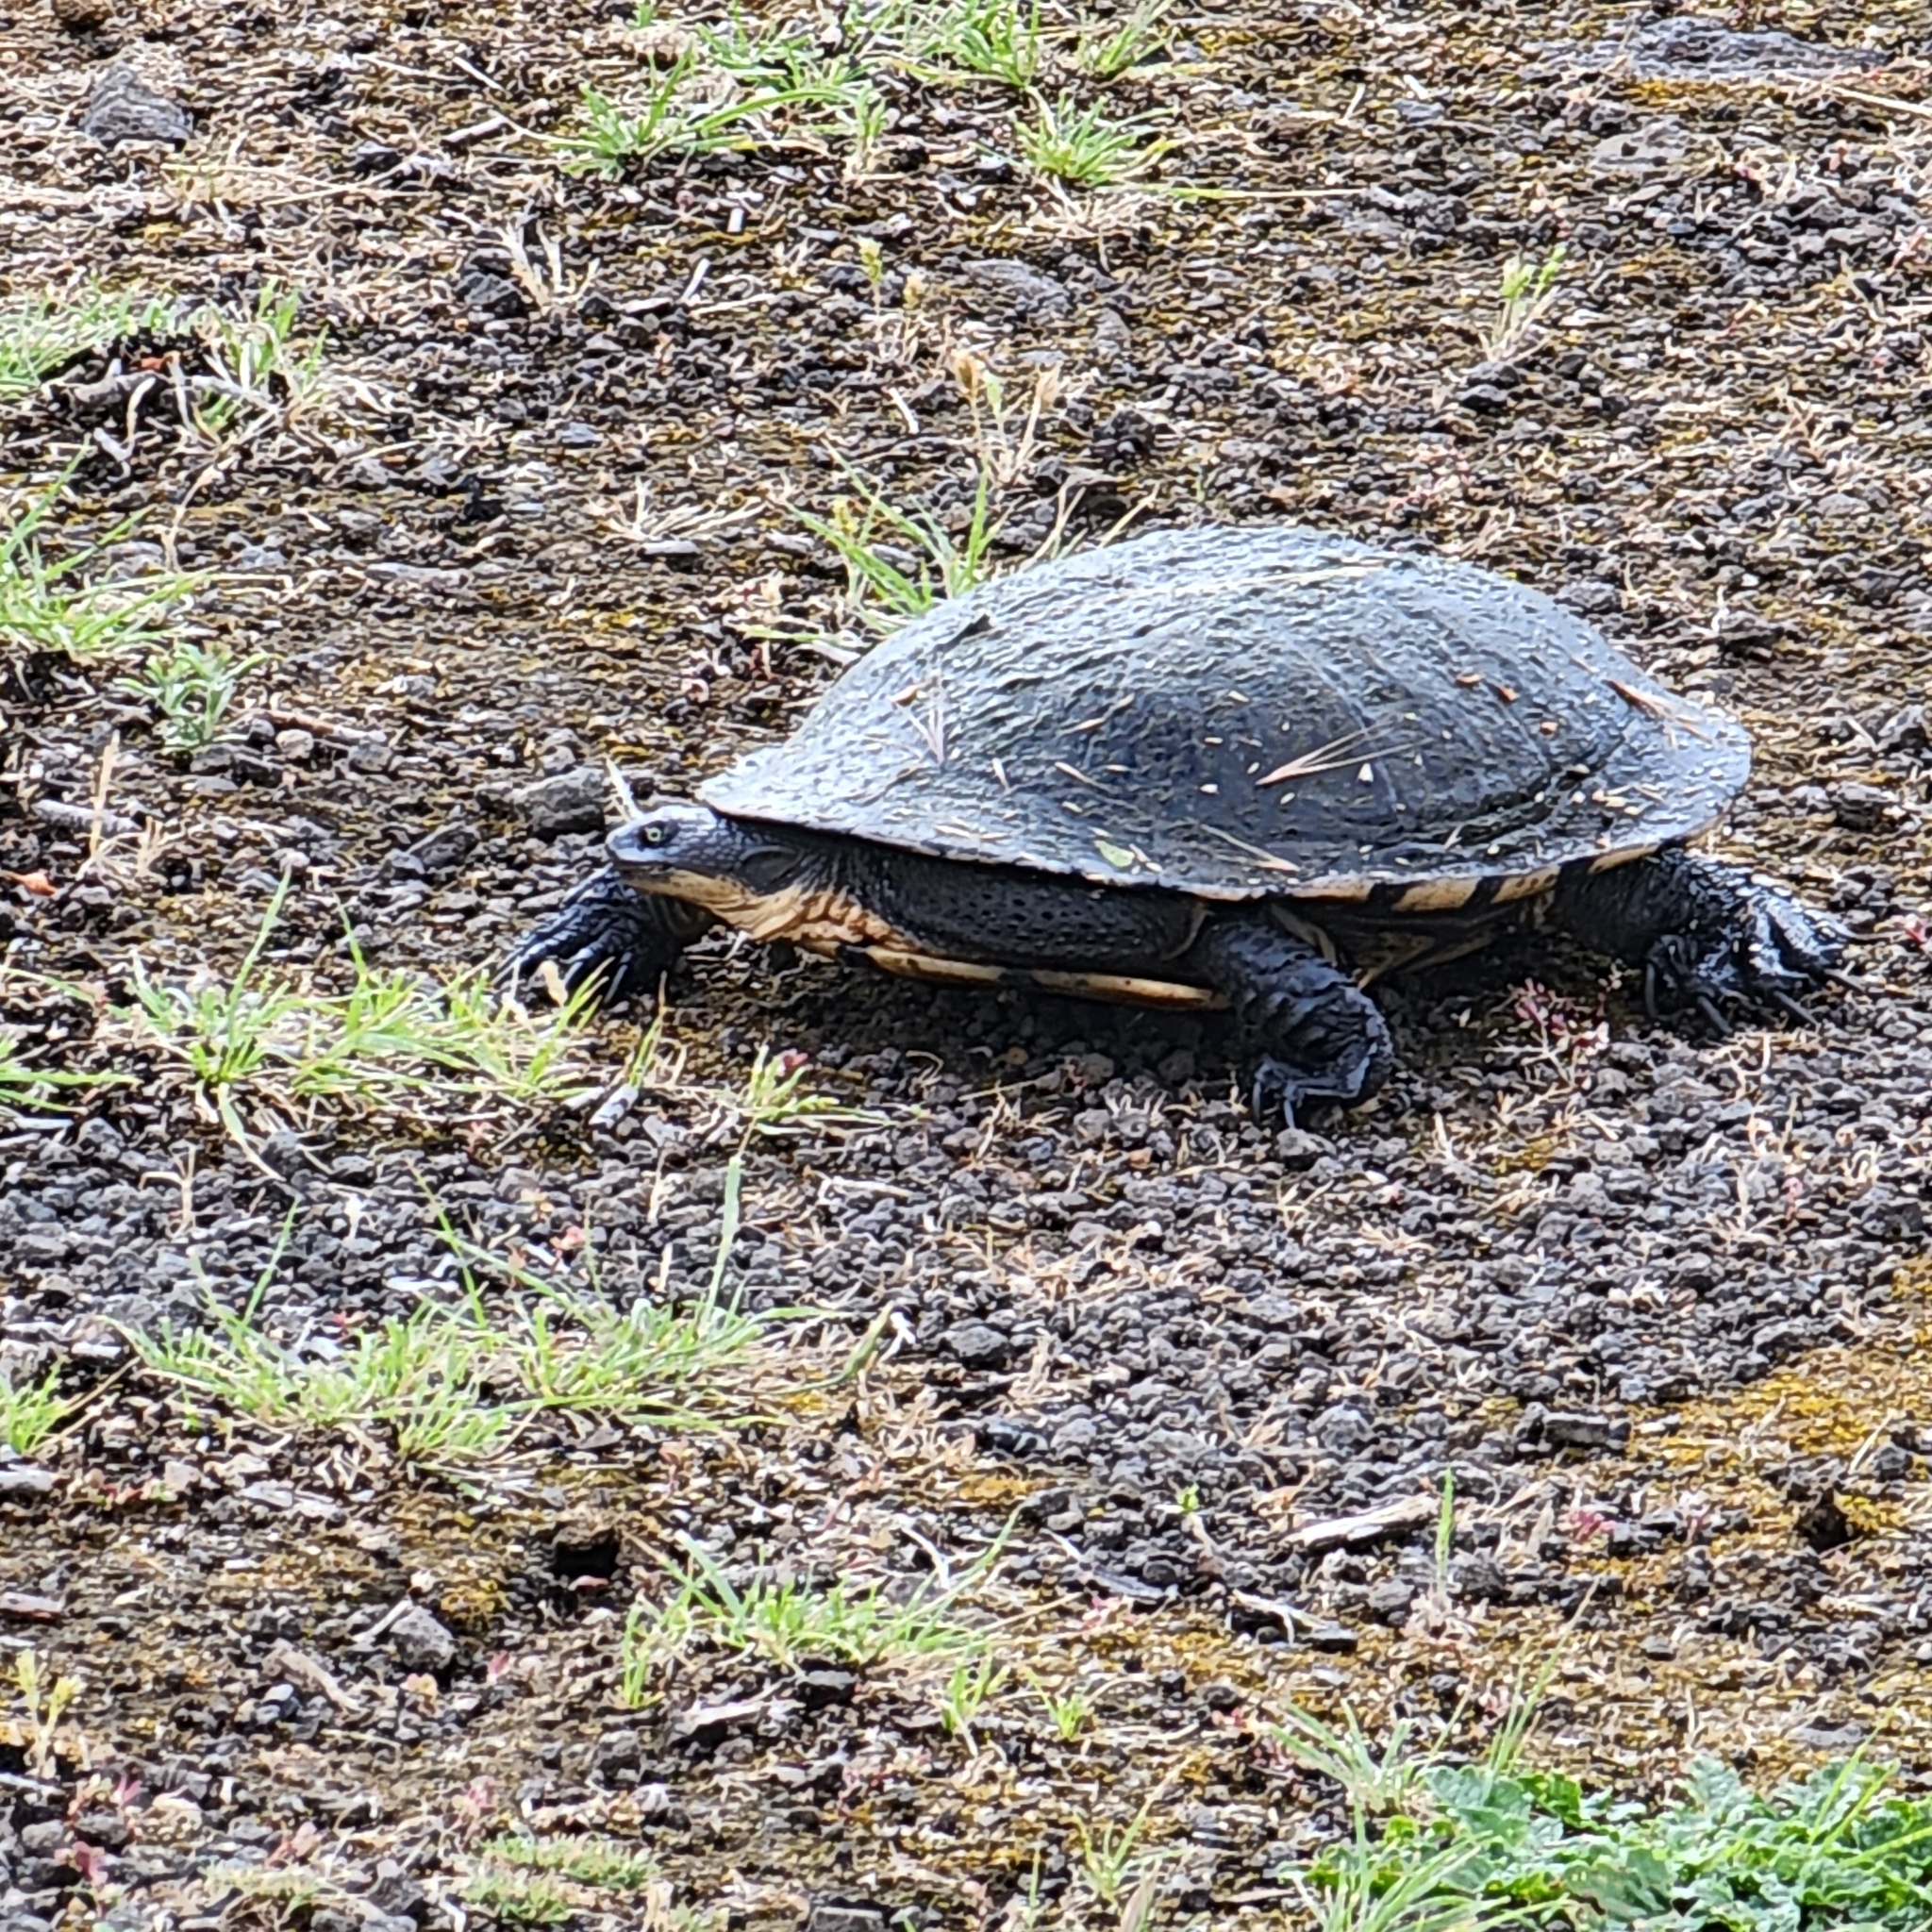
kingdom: Animalia
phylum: Chordata
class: Testudines
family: Chelidae
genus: Chelodina
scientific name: Chelodina longicollis
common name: Eastern snake-necked turtle
